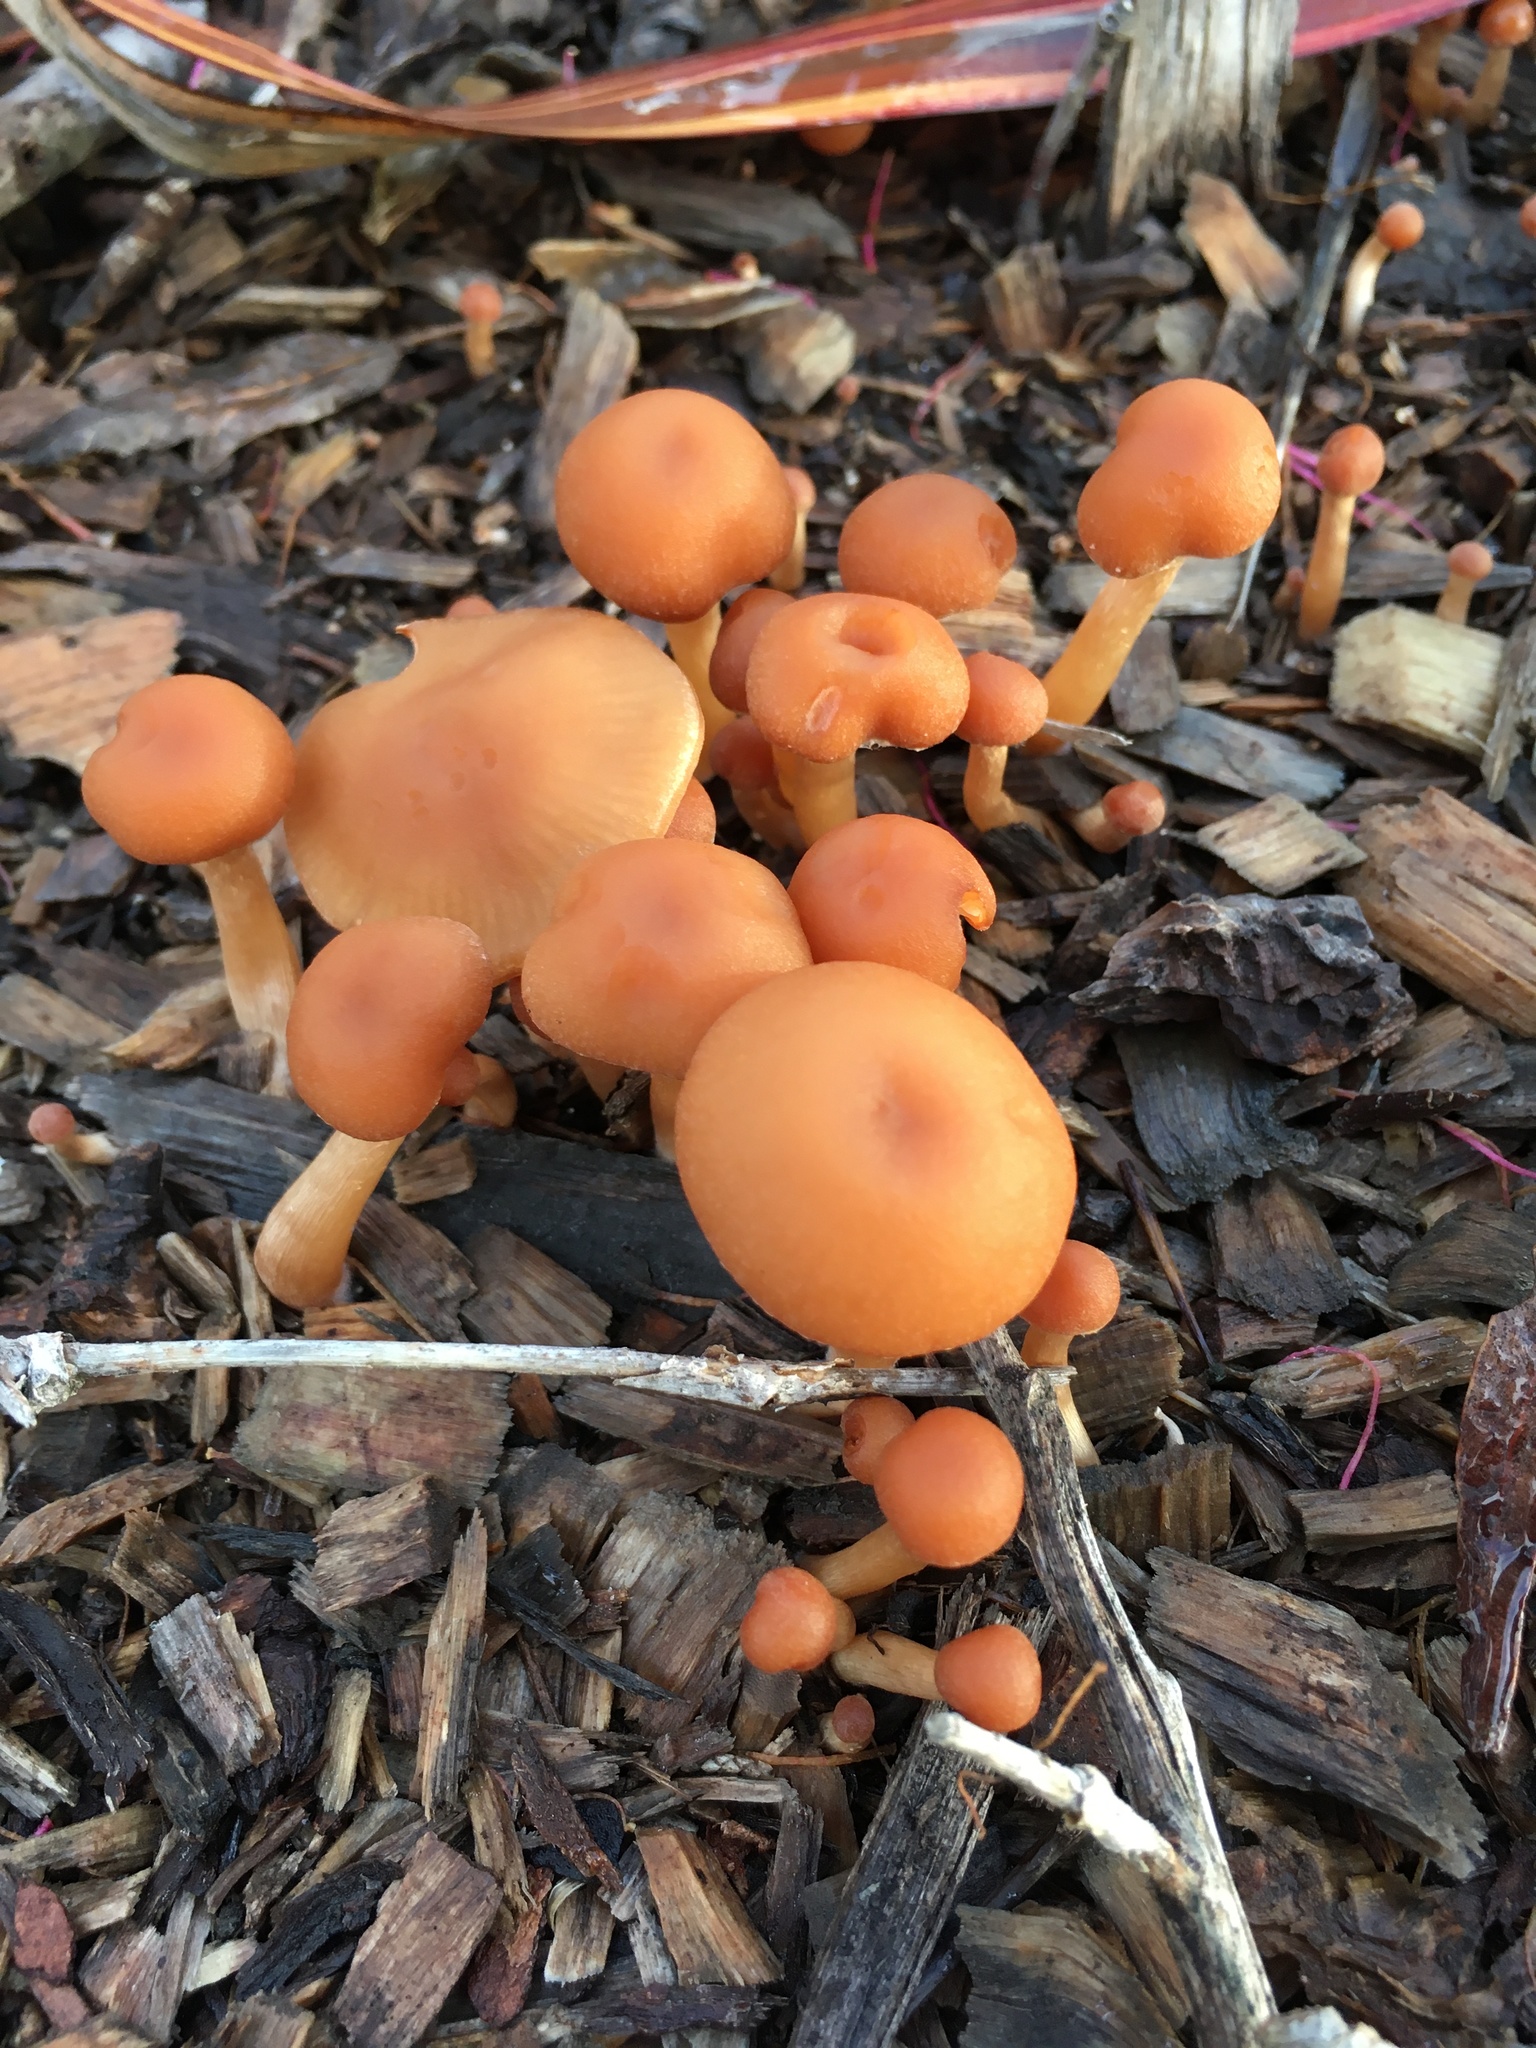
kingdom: Fungi
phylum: Basidiomycota
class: Agaricomycetes
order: Agaricales
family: Tubariaceae
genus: Tubaria
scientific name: Tubaria furfuracea
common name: Scurfy twiglet
